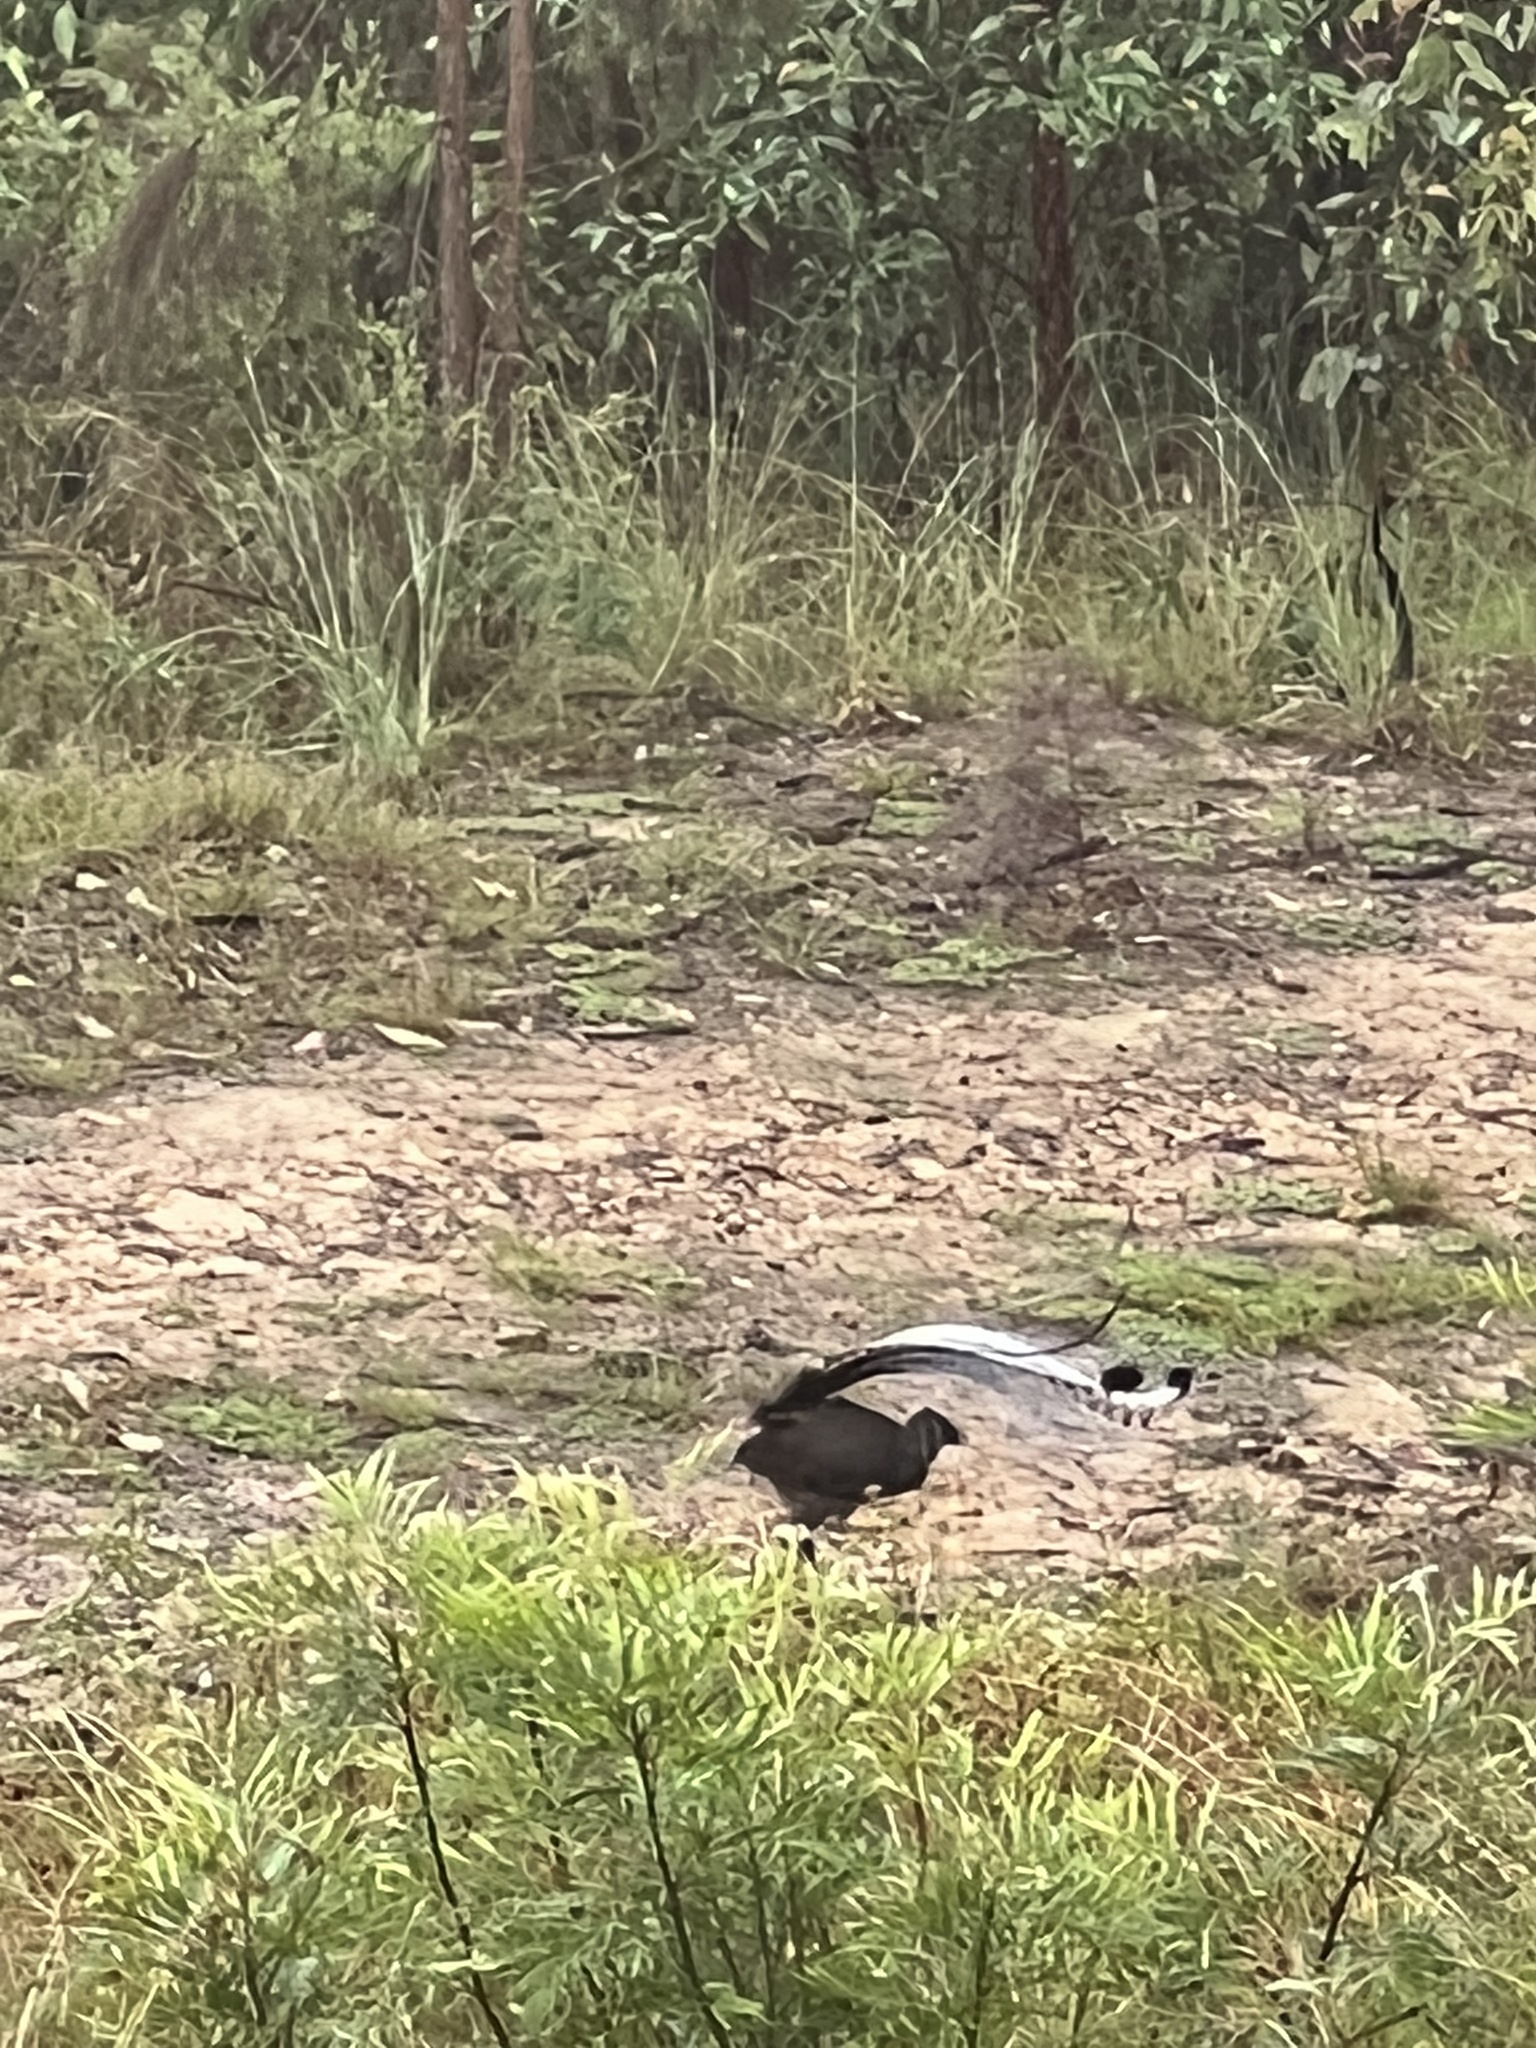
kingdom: Animalia
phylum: Chordata
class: Aves
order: Passeriformes
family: Menuridae
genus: Menura
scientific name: Menura novaehollandiae
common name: Superb lyrebird
